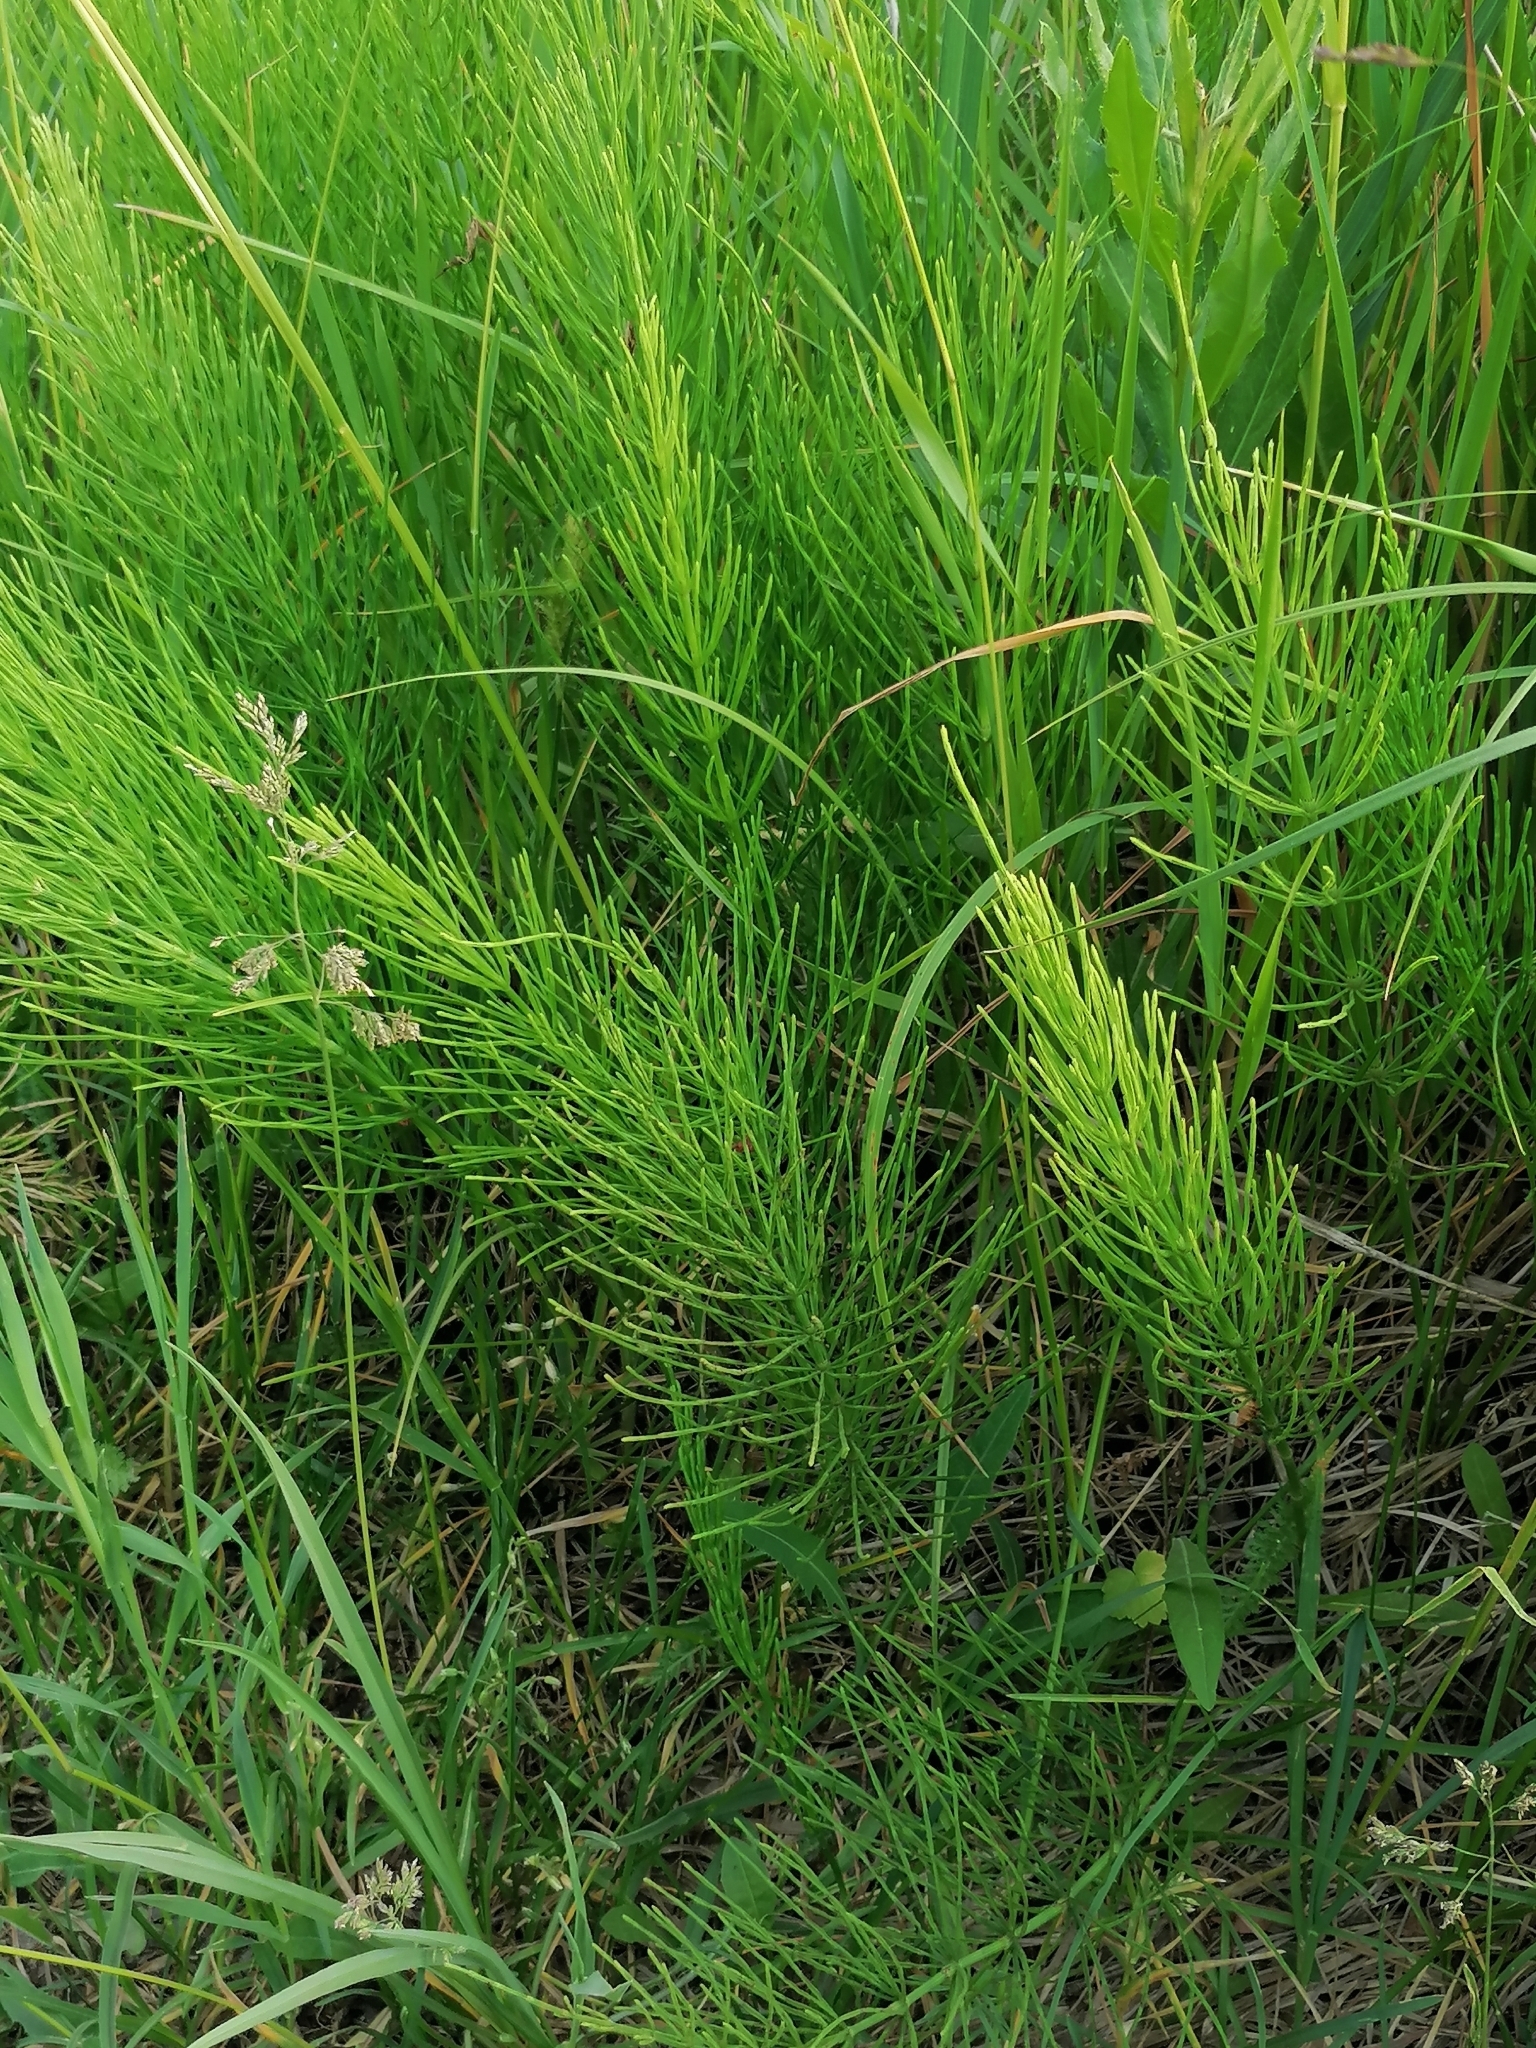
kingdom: Plantae
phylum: Tracheophyta
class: Polypodiopsida
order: Equisetales
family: Equisetaceae
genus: Equisetum
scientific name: Equisetum arvense
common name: Field horsetail
